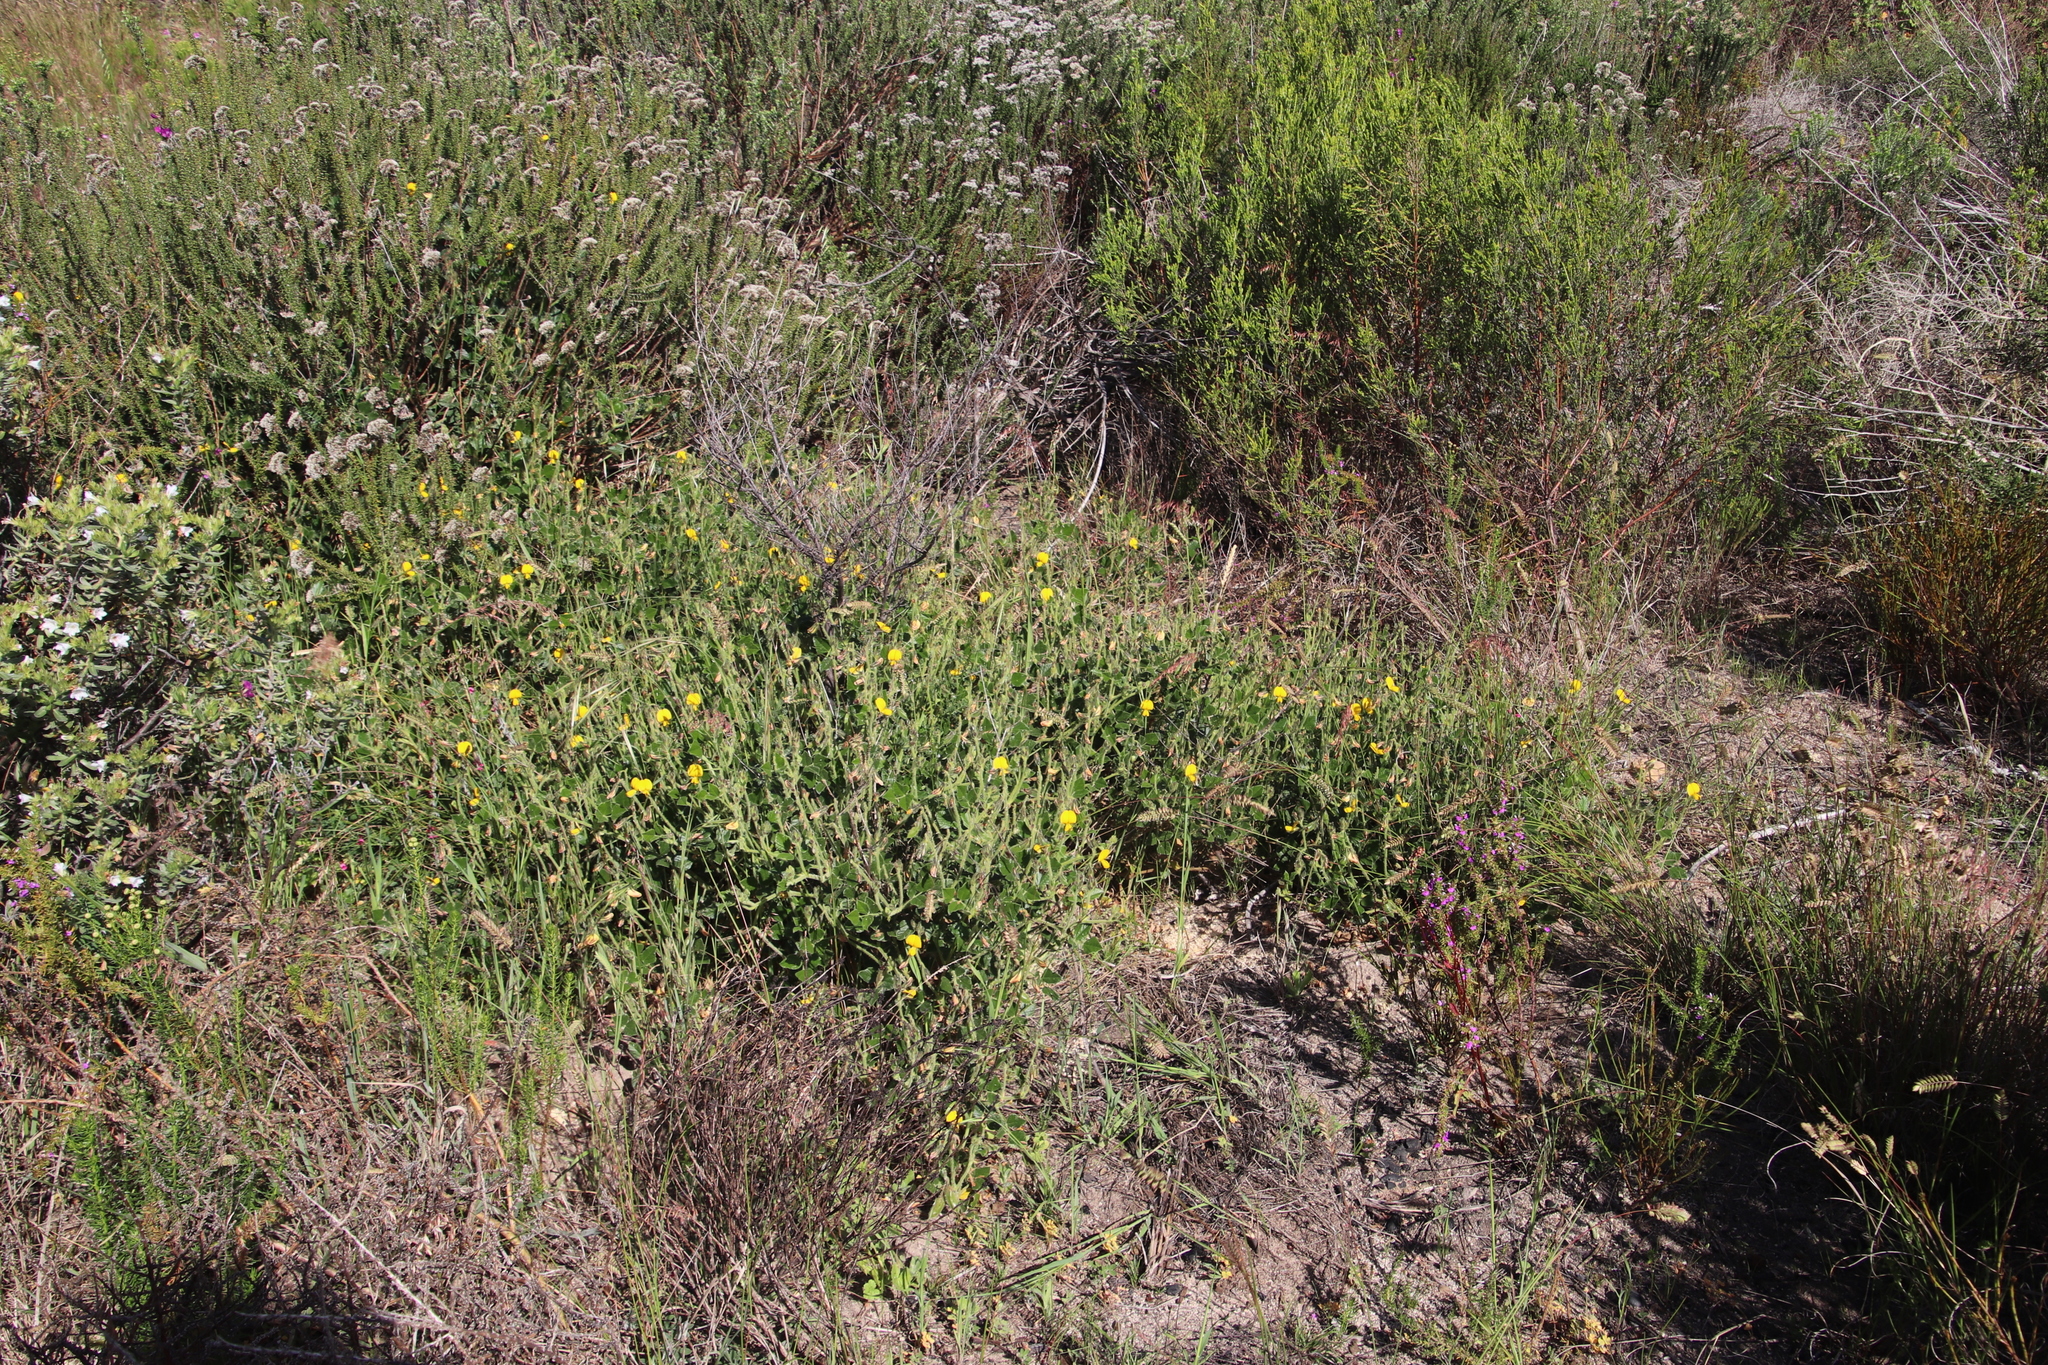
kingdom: Plantae
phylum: Tracheophyta
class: Magnoliopsida
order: Fabales
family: Fabaceae
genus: Bolusafra
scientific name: Bolusafra bituminosa
